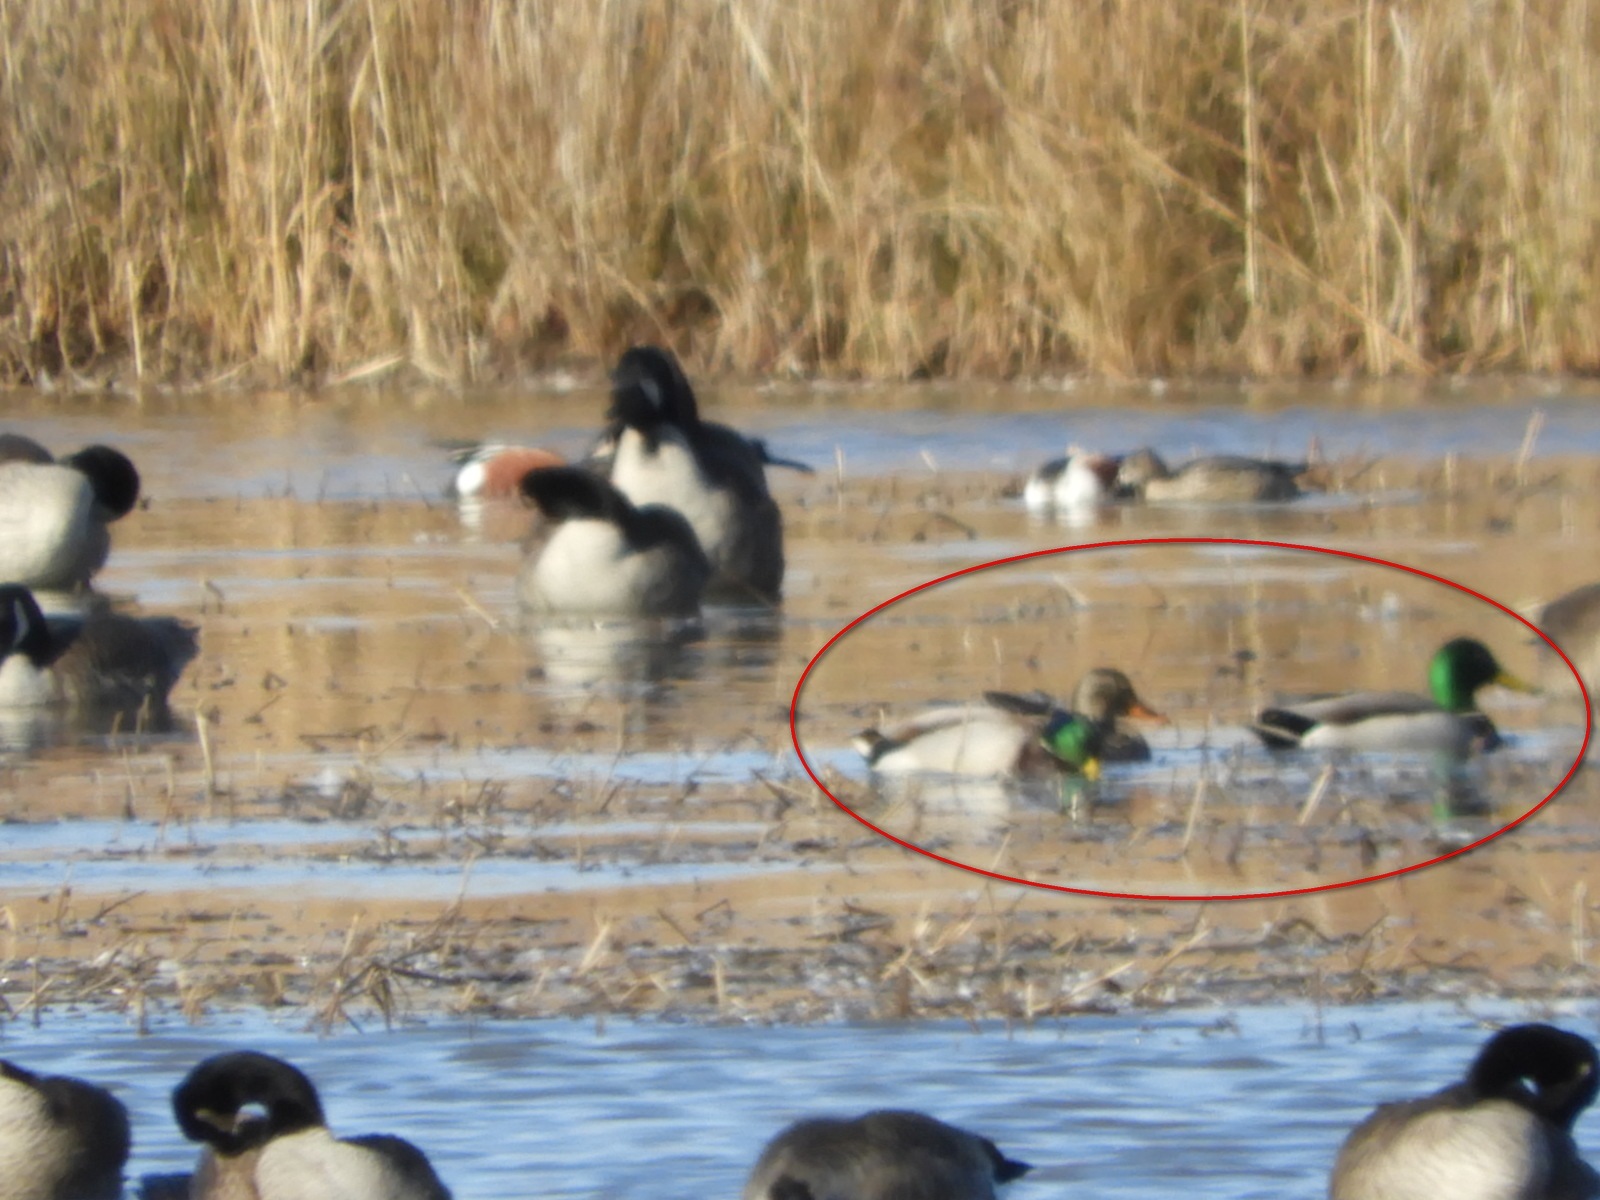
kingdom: Animalia
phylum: Chordata
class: Aves
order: Anseriformes
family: Anatidae
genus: Anas
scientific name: Anas platyrhynchos
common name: Mallard
